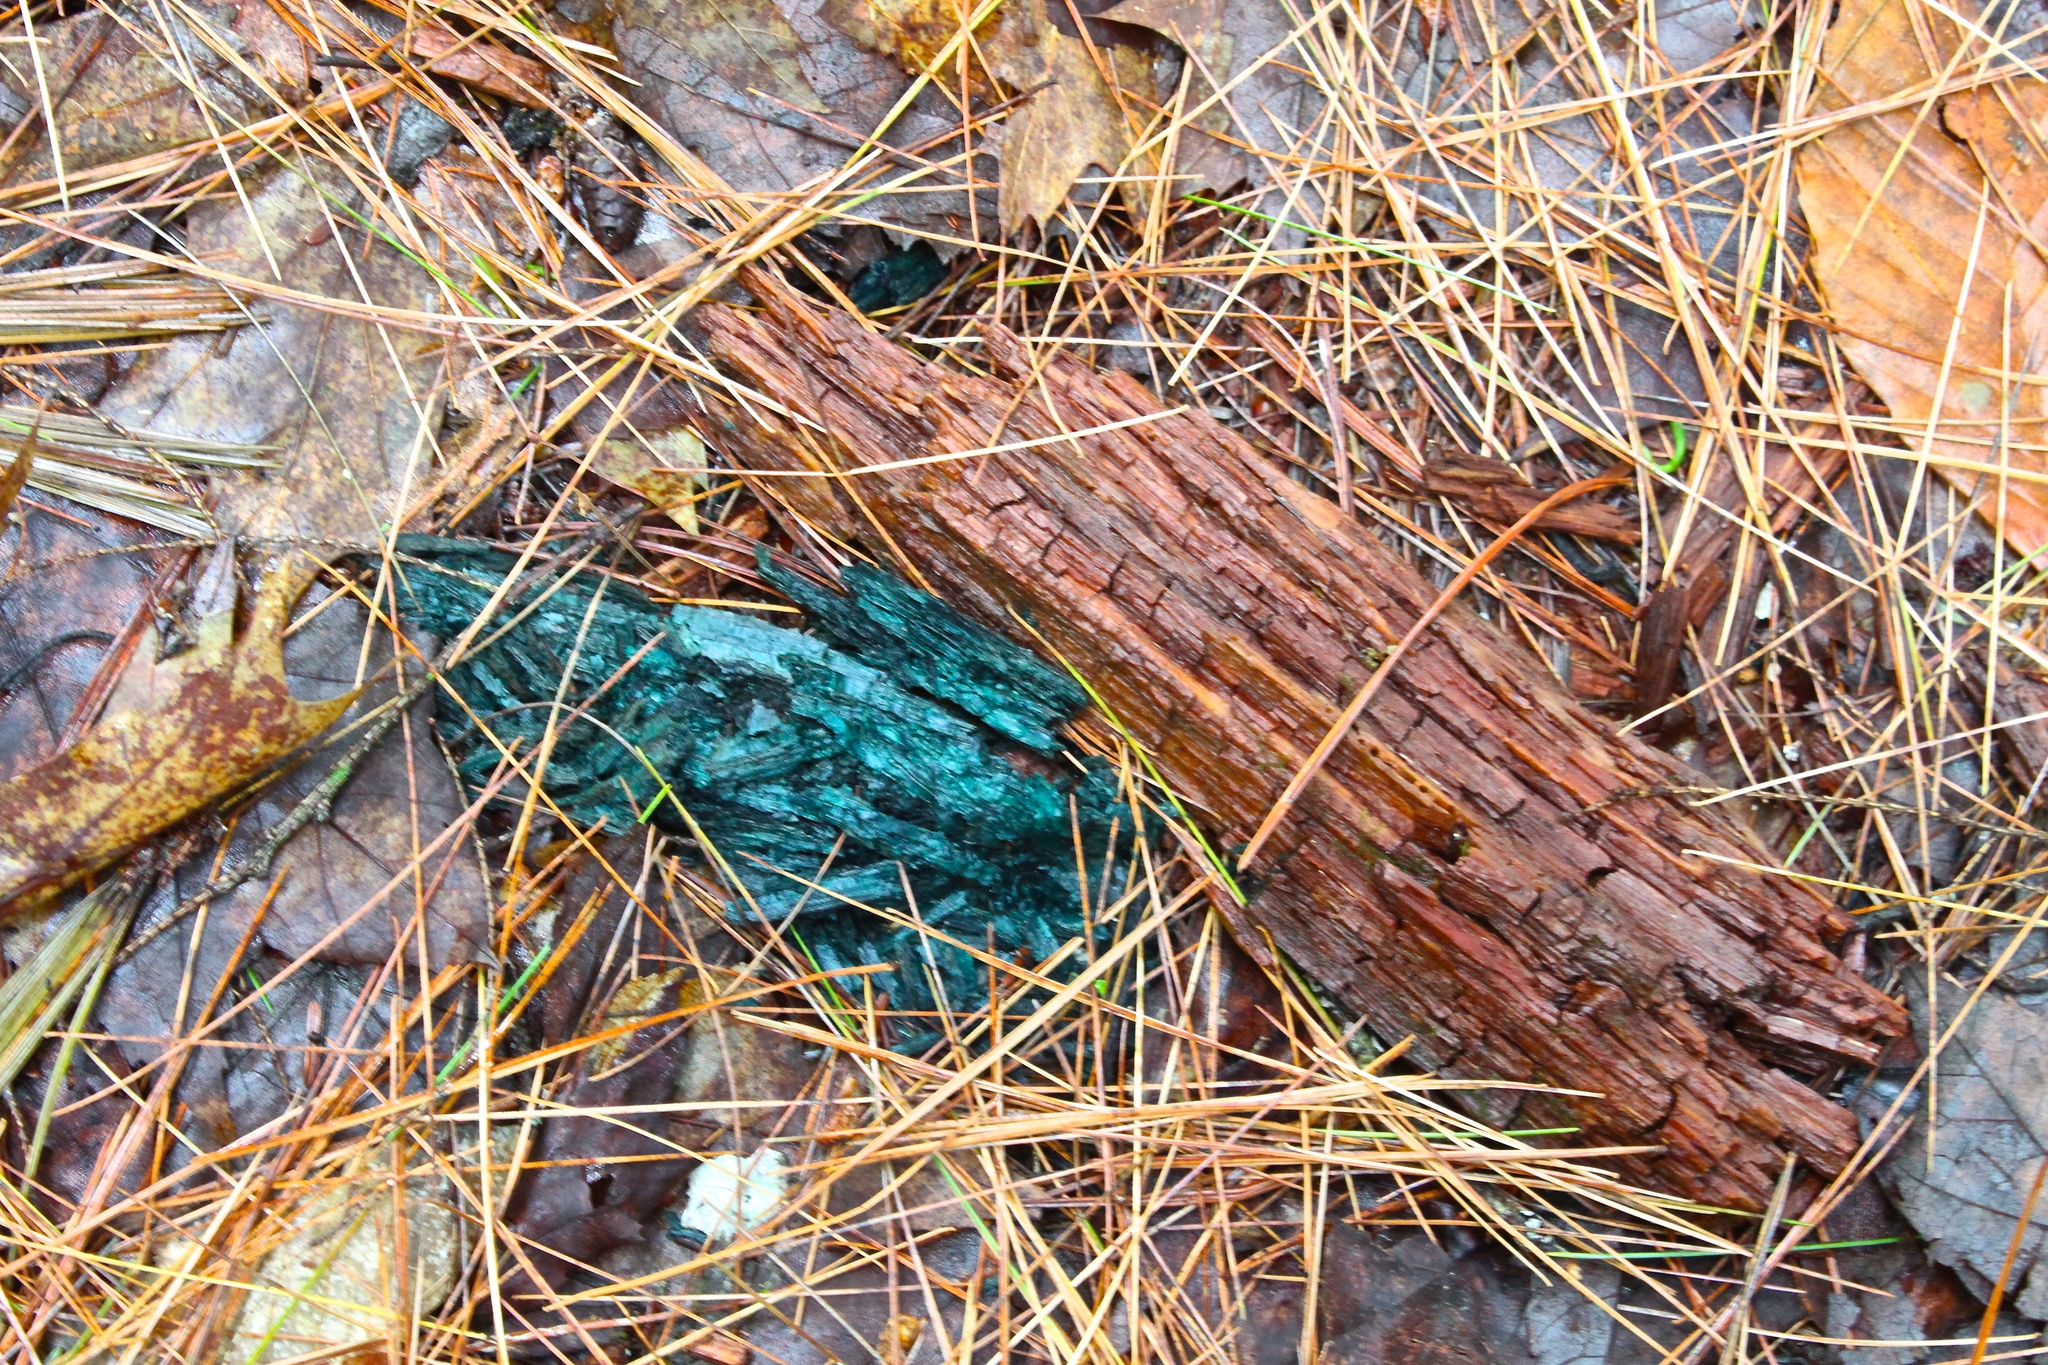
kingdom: Fungi
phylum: Ascomycota
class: Leotiomycetes
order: Helotiales
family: Chlorociboriaceae
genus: Chlorociboria
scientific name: Chlorociboria
